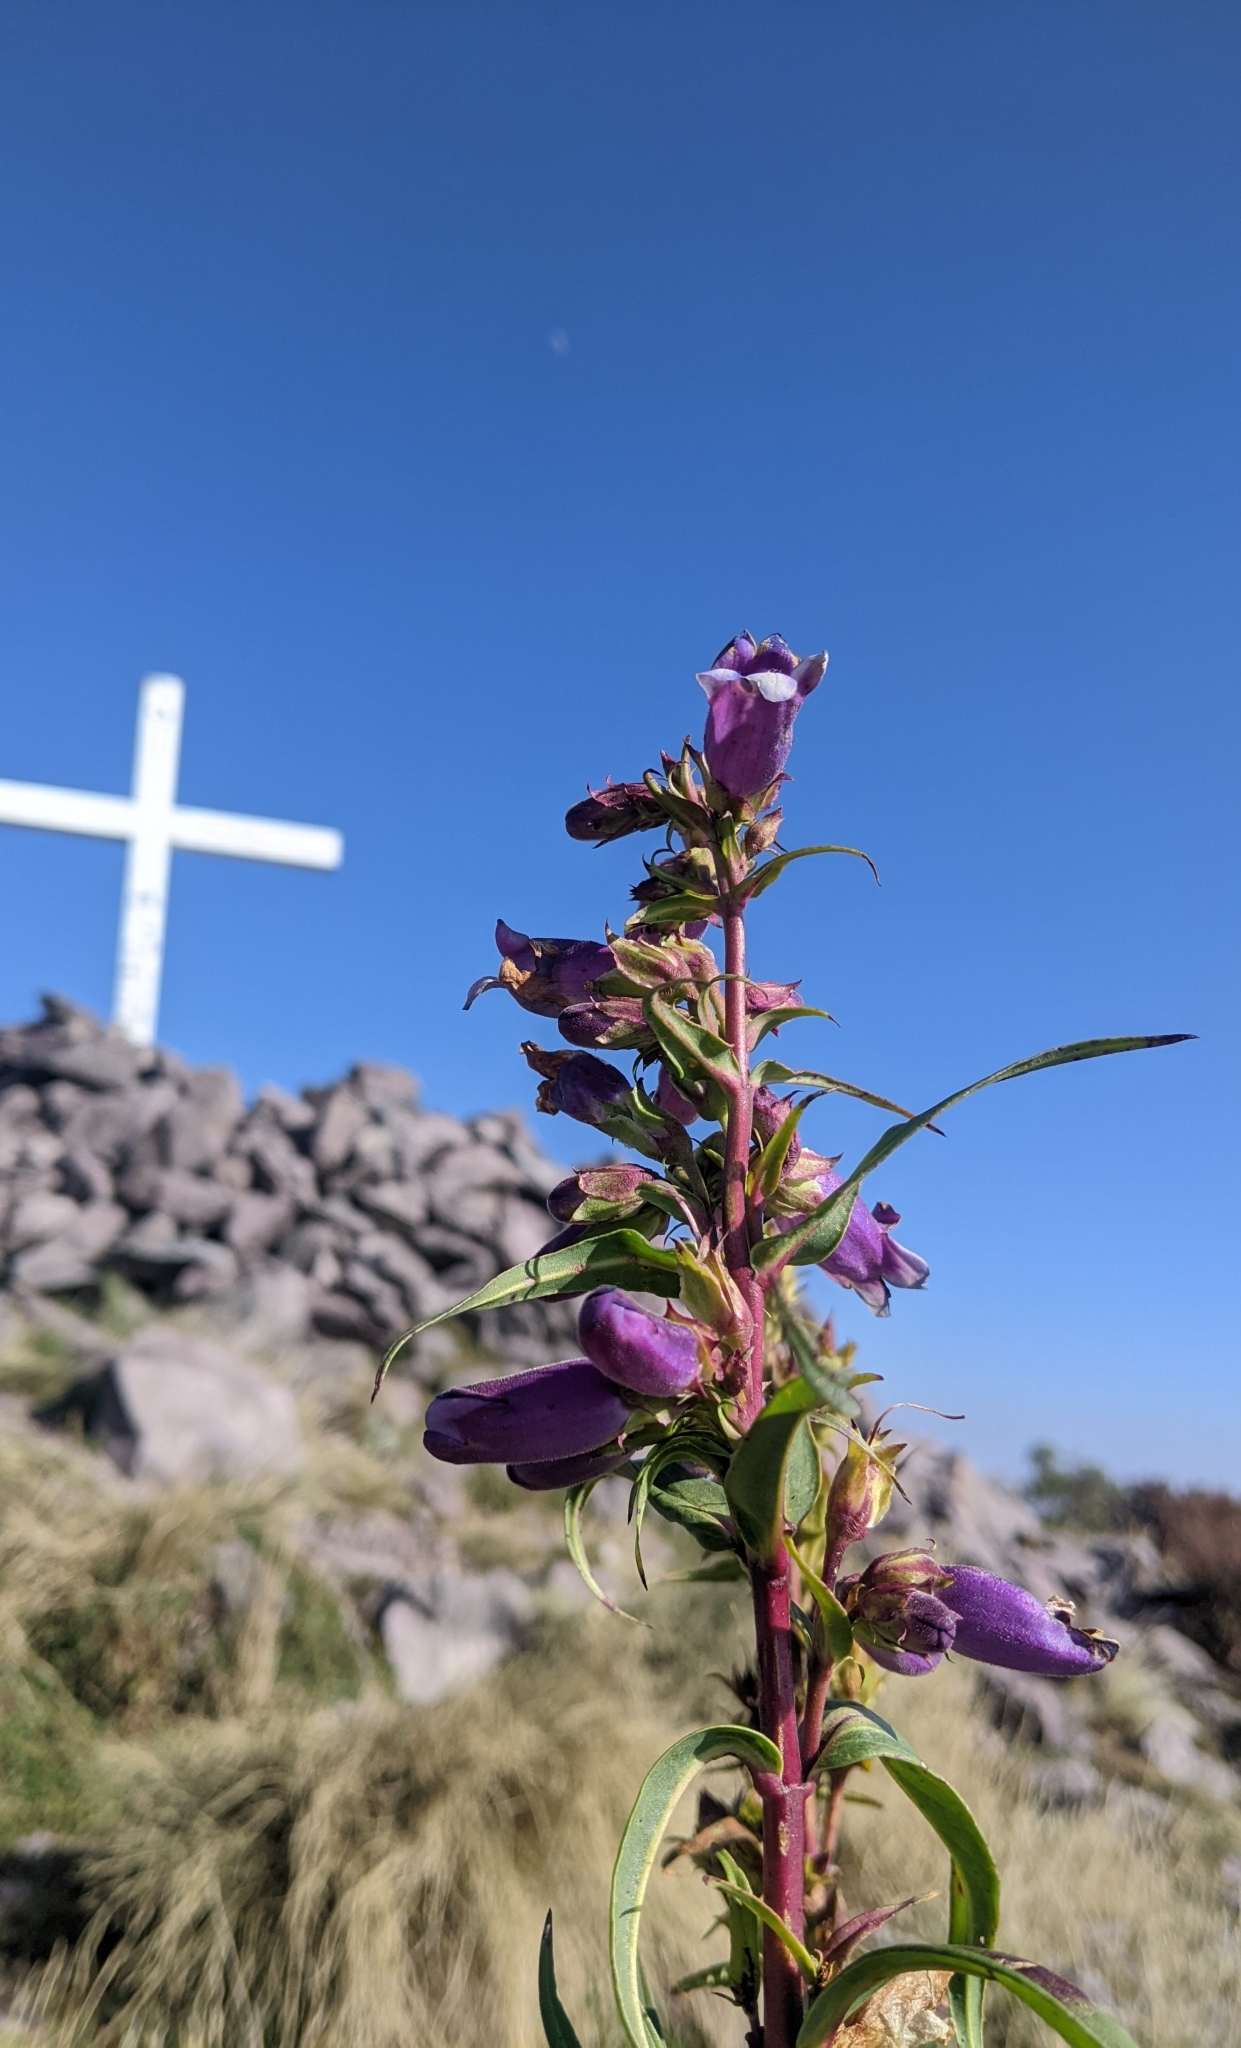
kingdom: Plantae
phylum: Tracheophyta
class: Magnoliopsida
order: Lamiales
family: Plantaginaceae
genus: Penstemon
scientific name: Penstemon gentianoides
